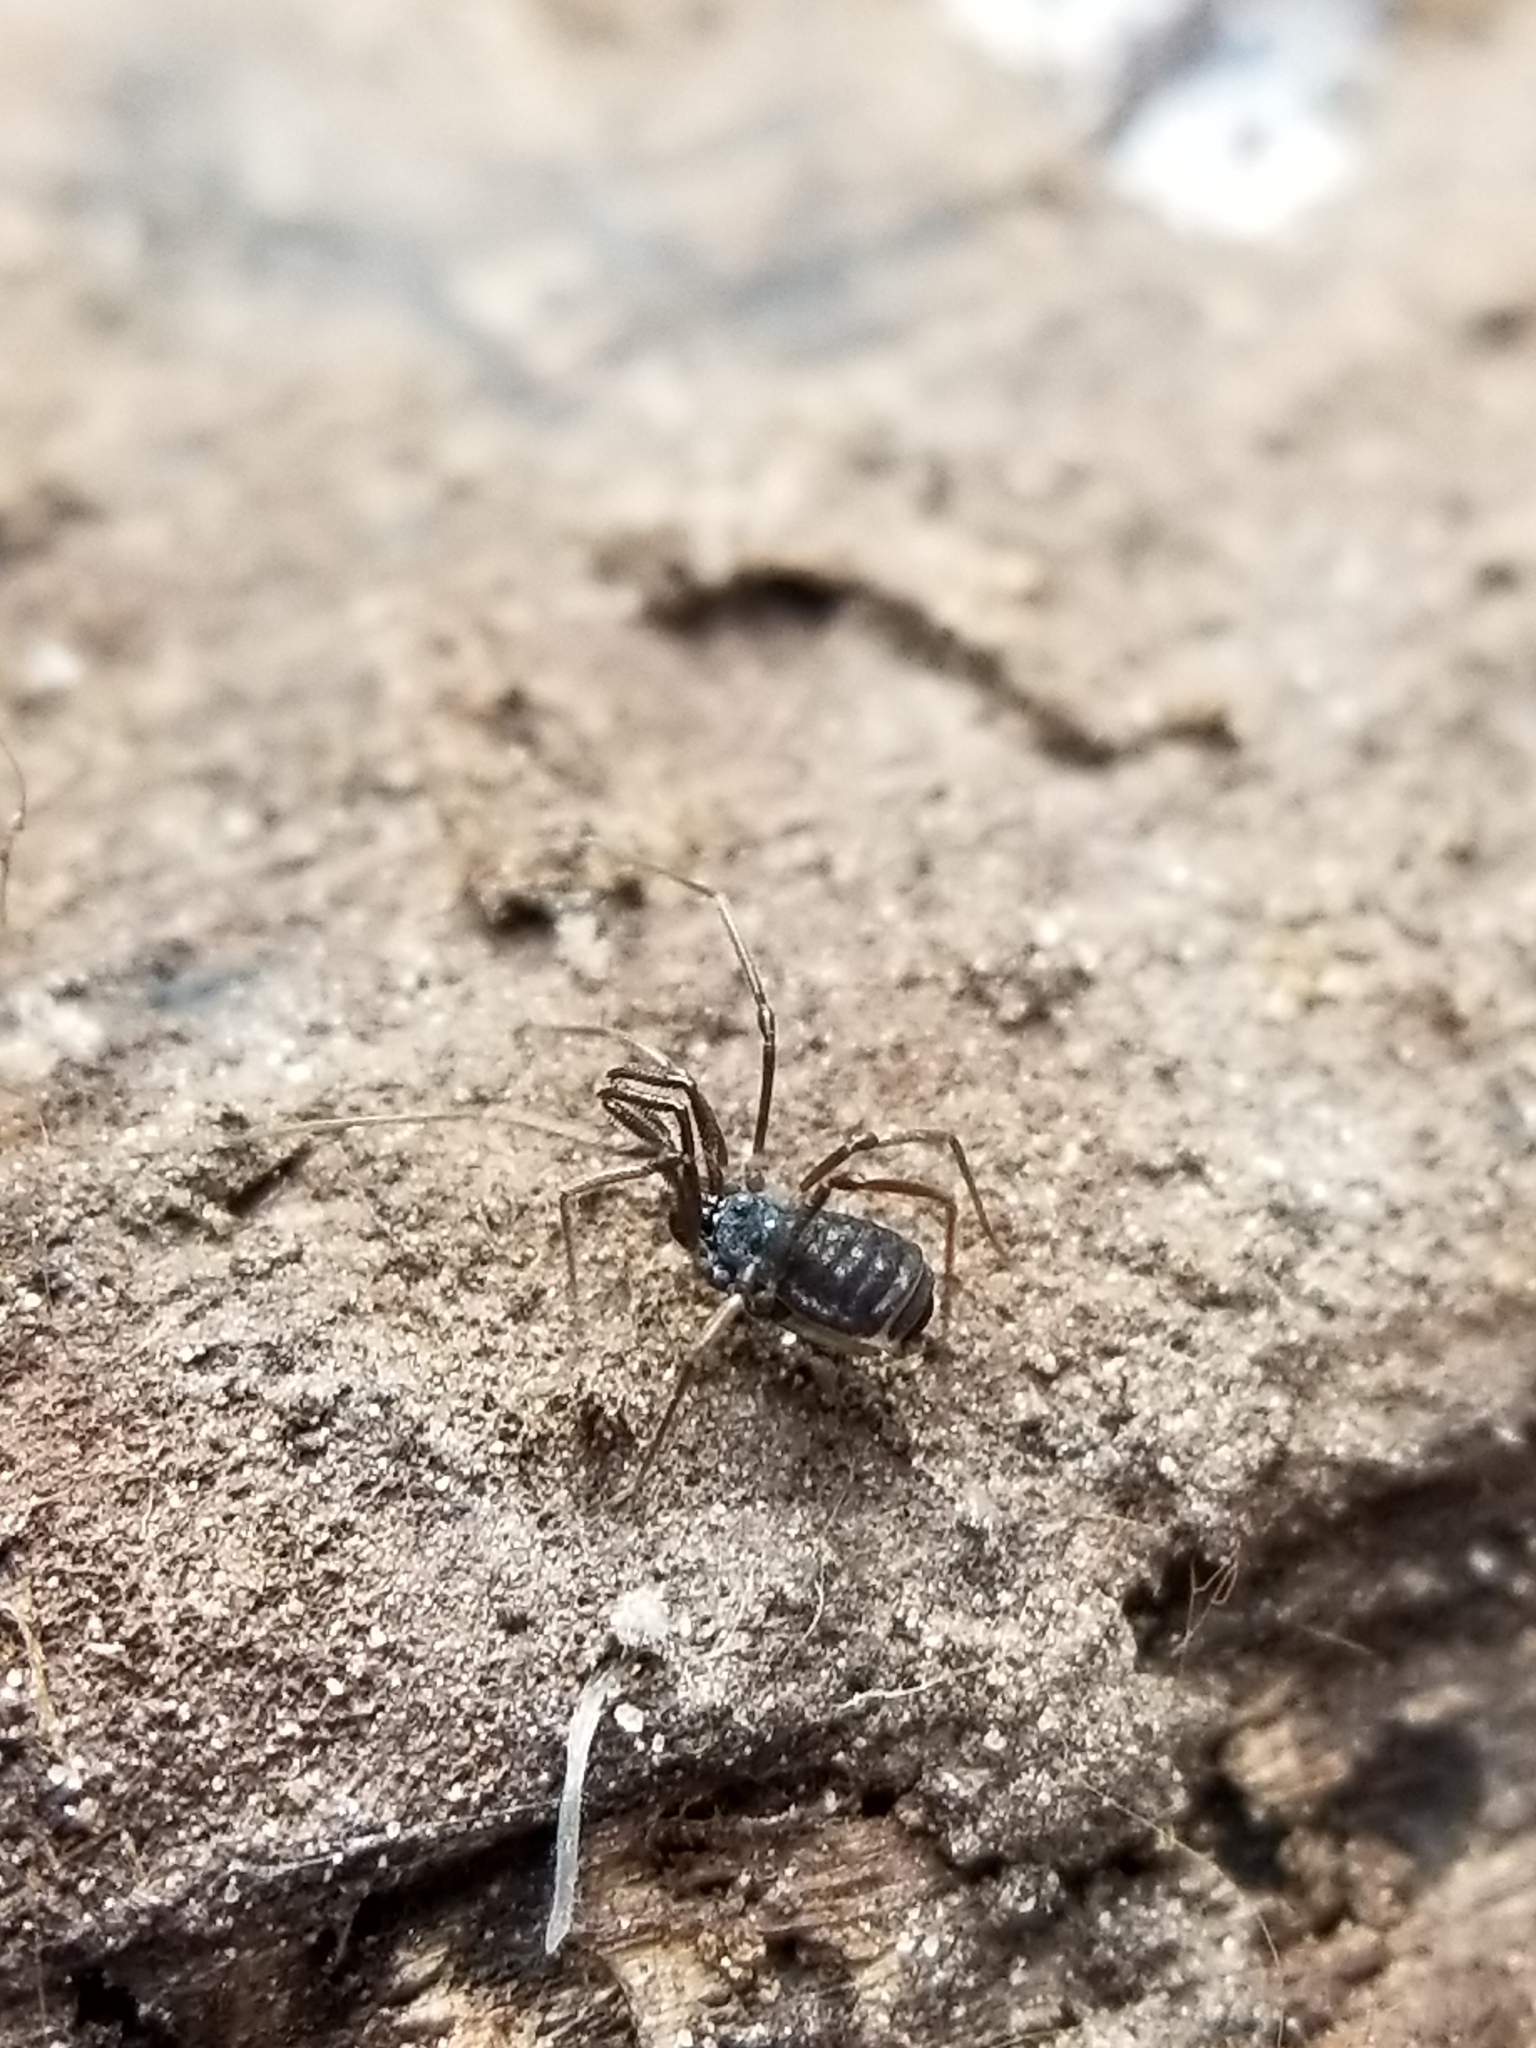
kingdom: Animalia
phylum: Arthropoda
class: Arachnida
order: Opiliones
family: Taracidae
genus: Hesperonemastoma
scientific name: Hesperonemastoma packardi
